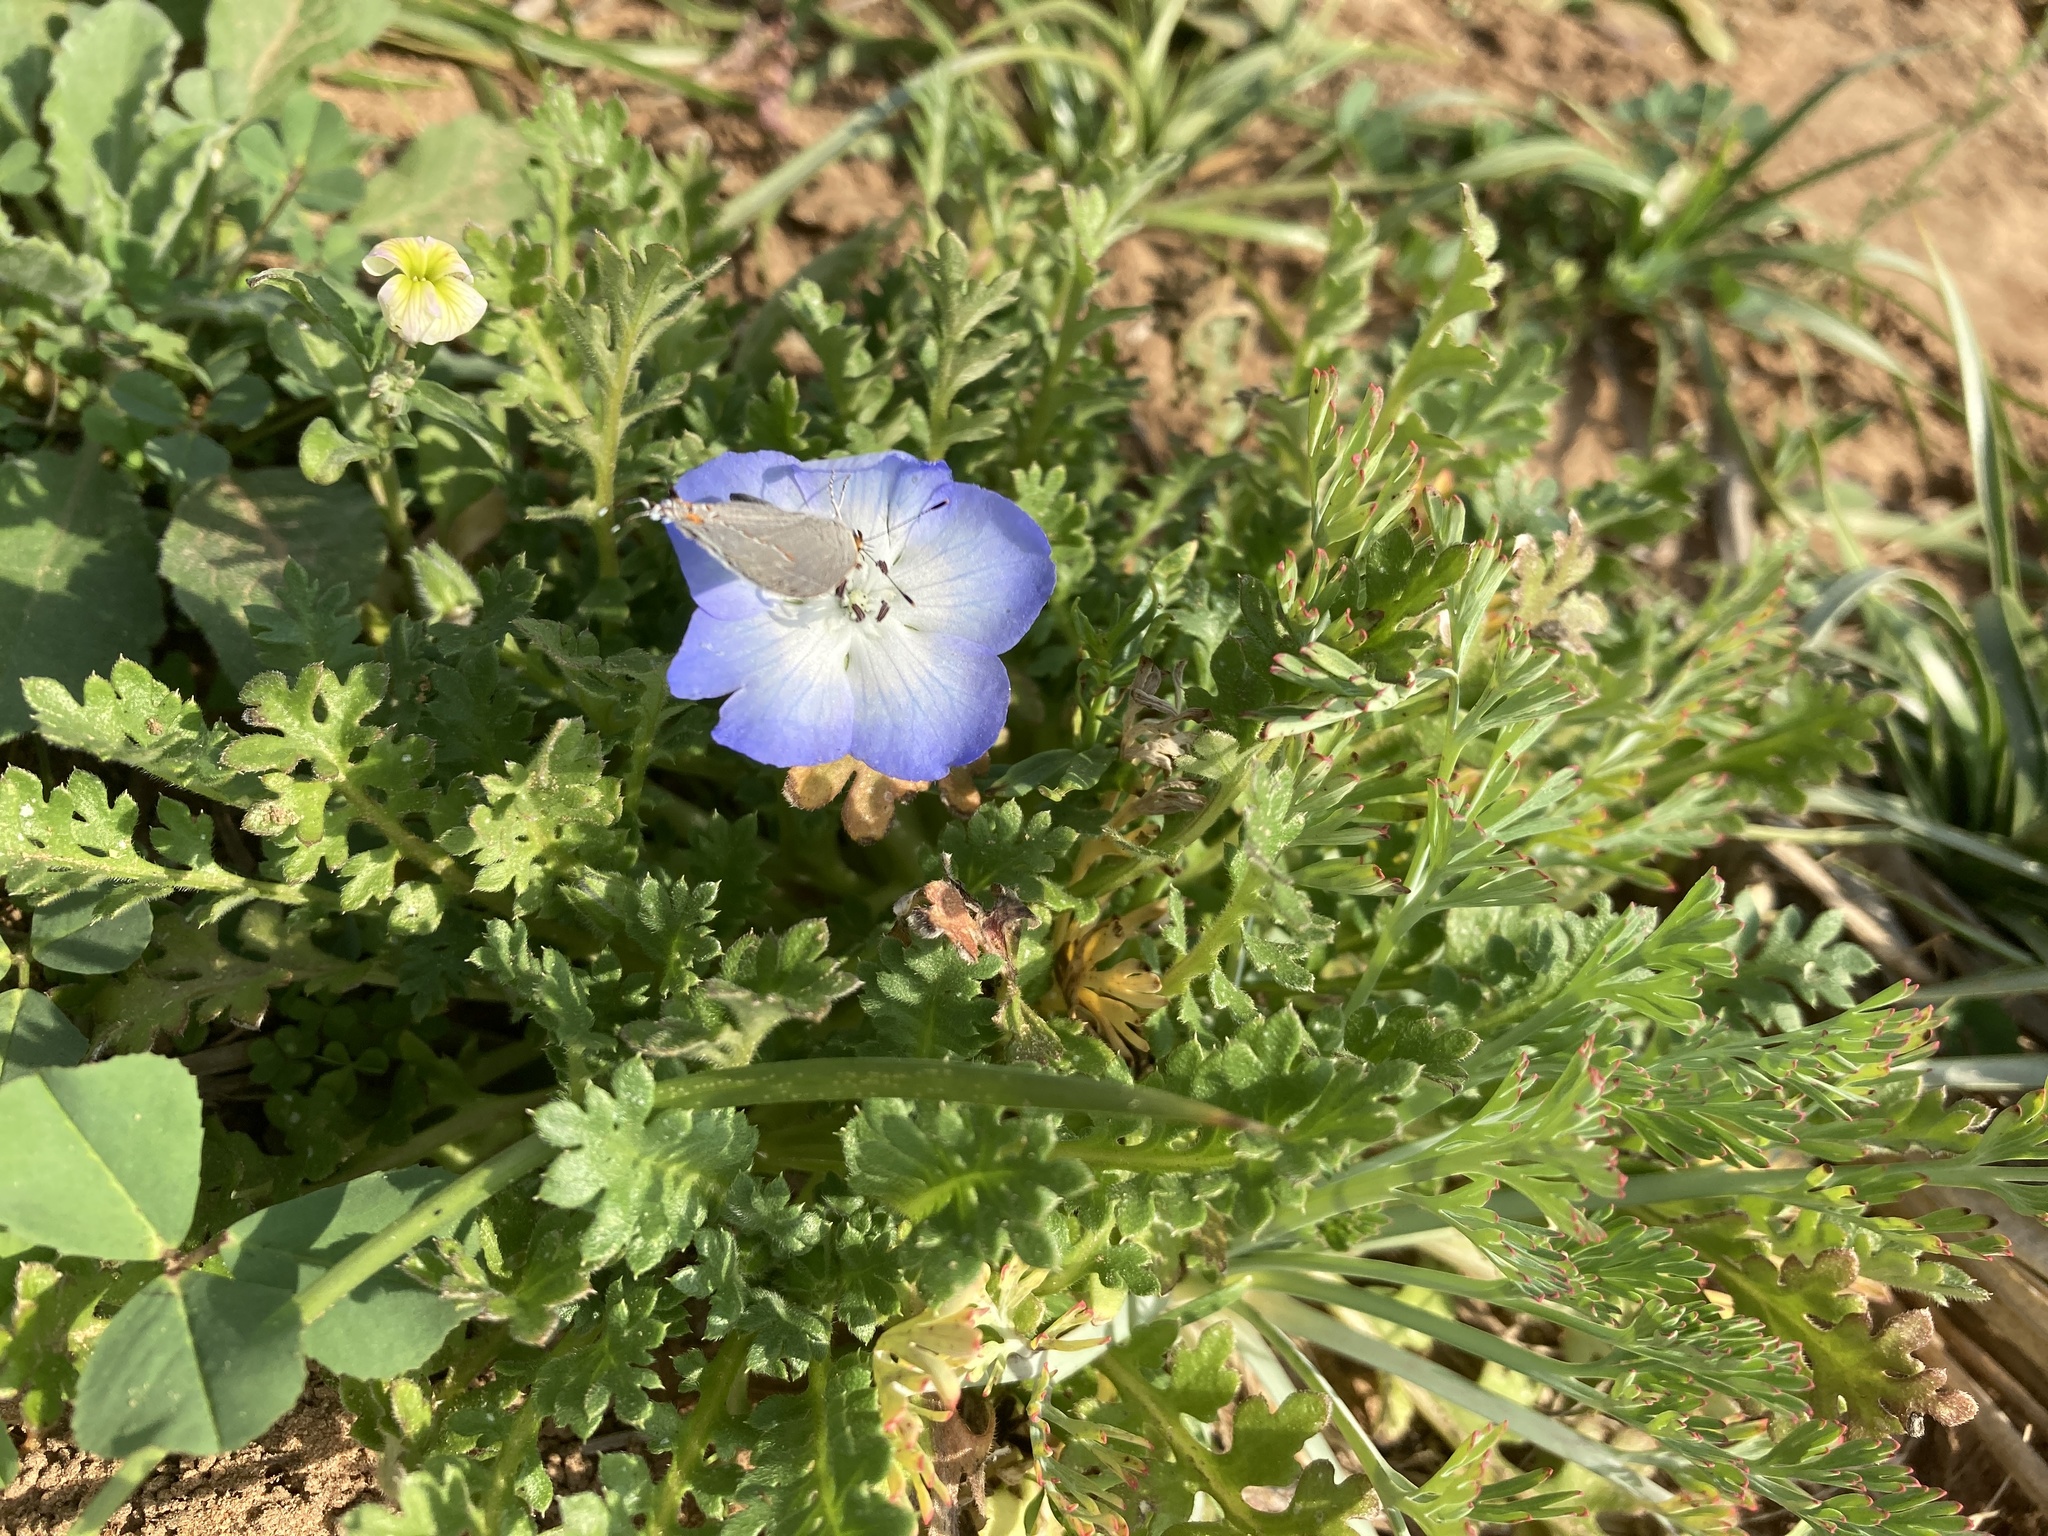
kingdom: Plantae
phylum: Tracheophyta
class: Magnoliopsida
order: Boraginales
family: Hydrophyllaceae
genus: Nemophila
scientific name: Nemophila phacelioides
